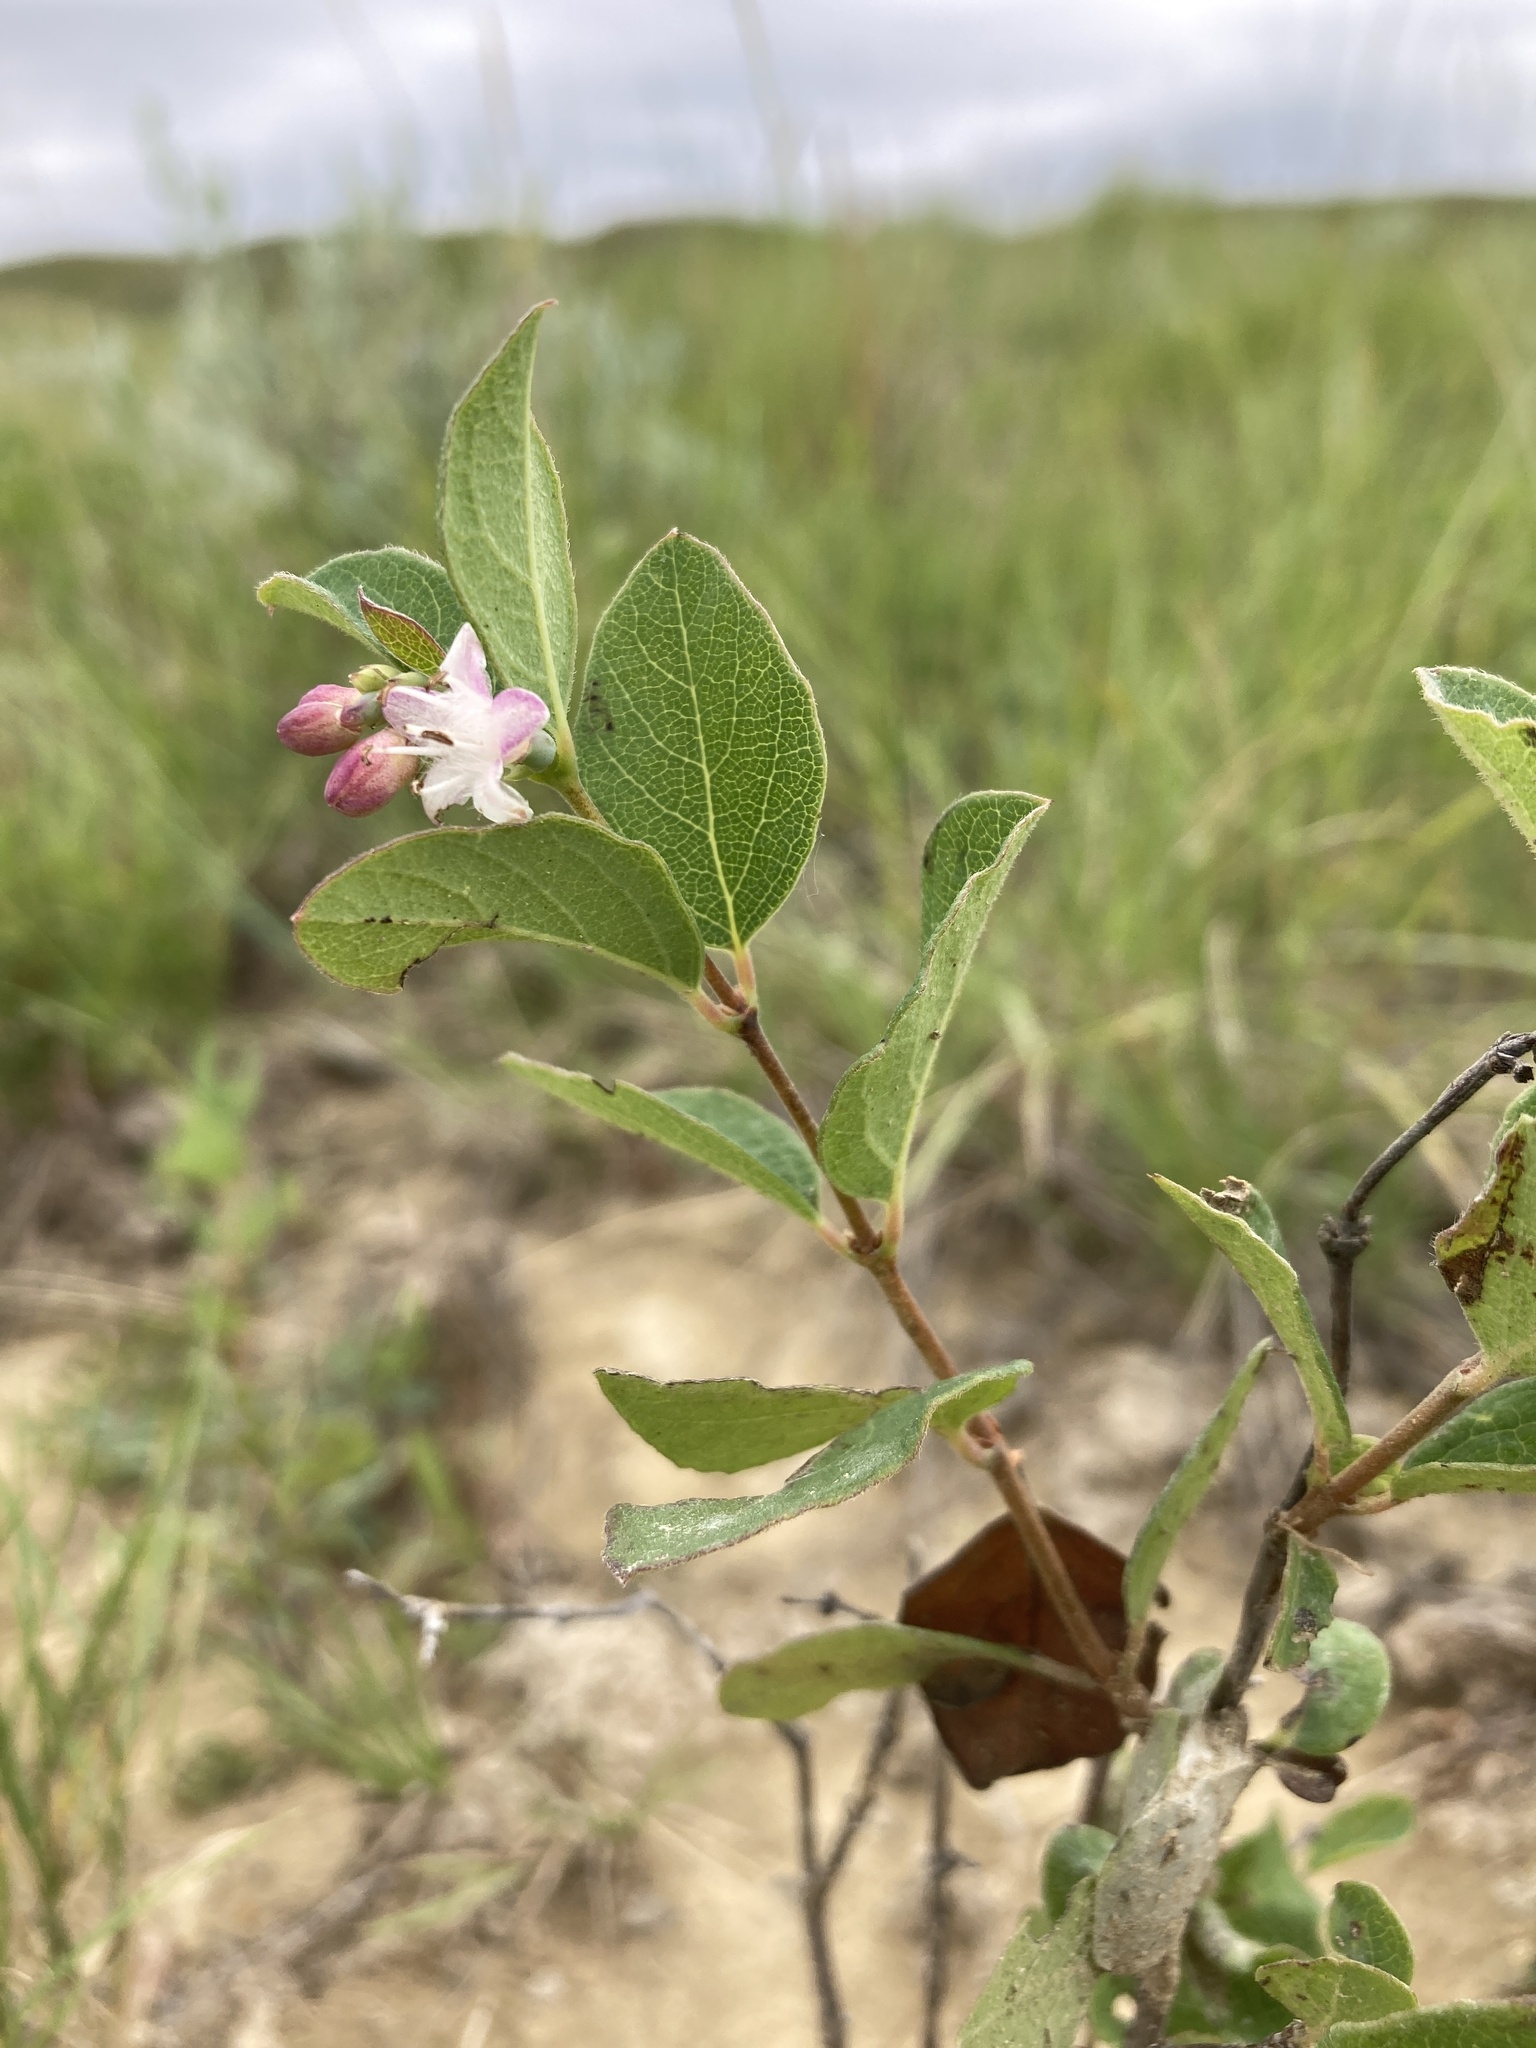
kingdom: Plantae
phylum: Tracheophyta
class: Magnoliopsida
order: Dipsacales
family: Caprifoliaceae
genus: Symphoricarpos
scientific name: Symphoricarpos occidentalis
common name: Wolfberry
